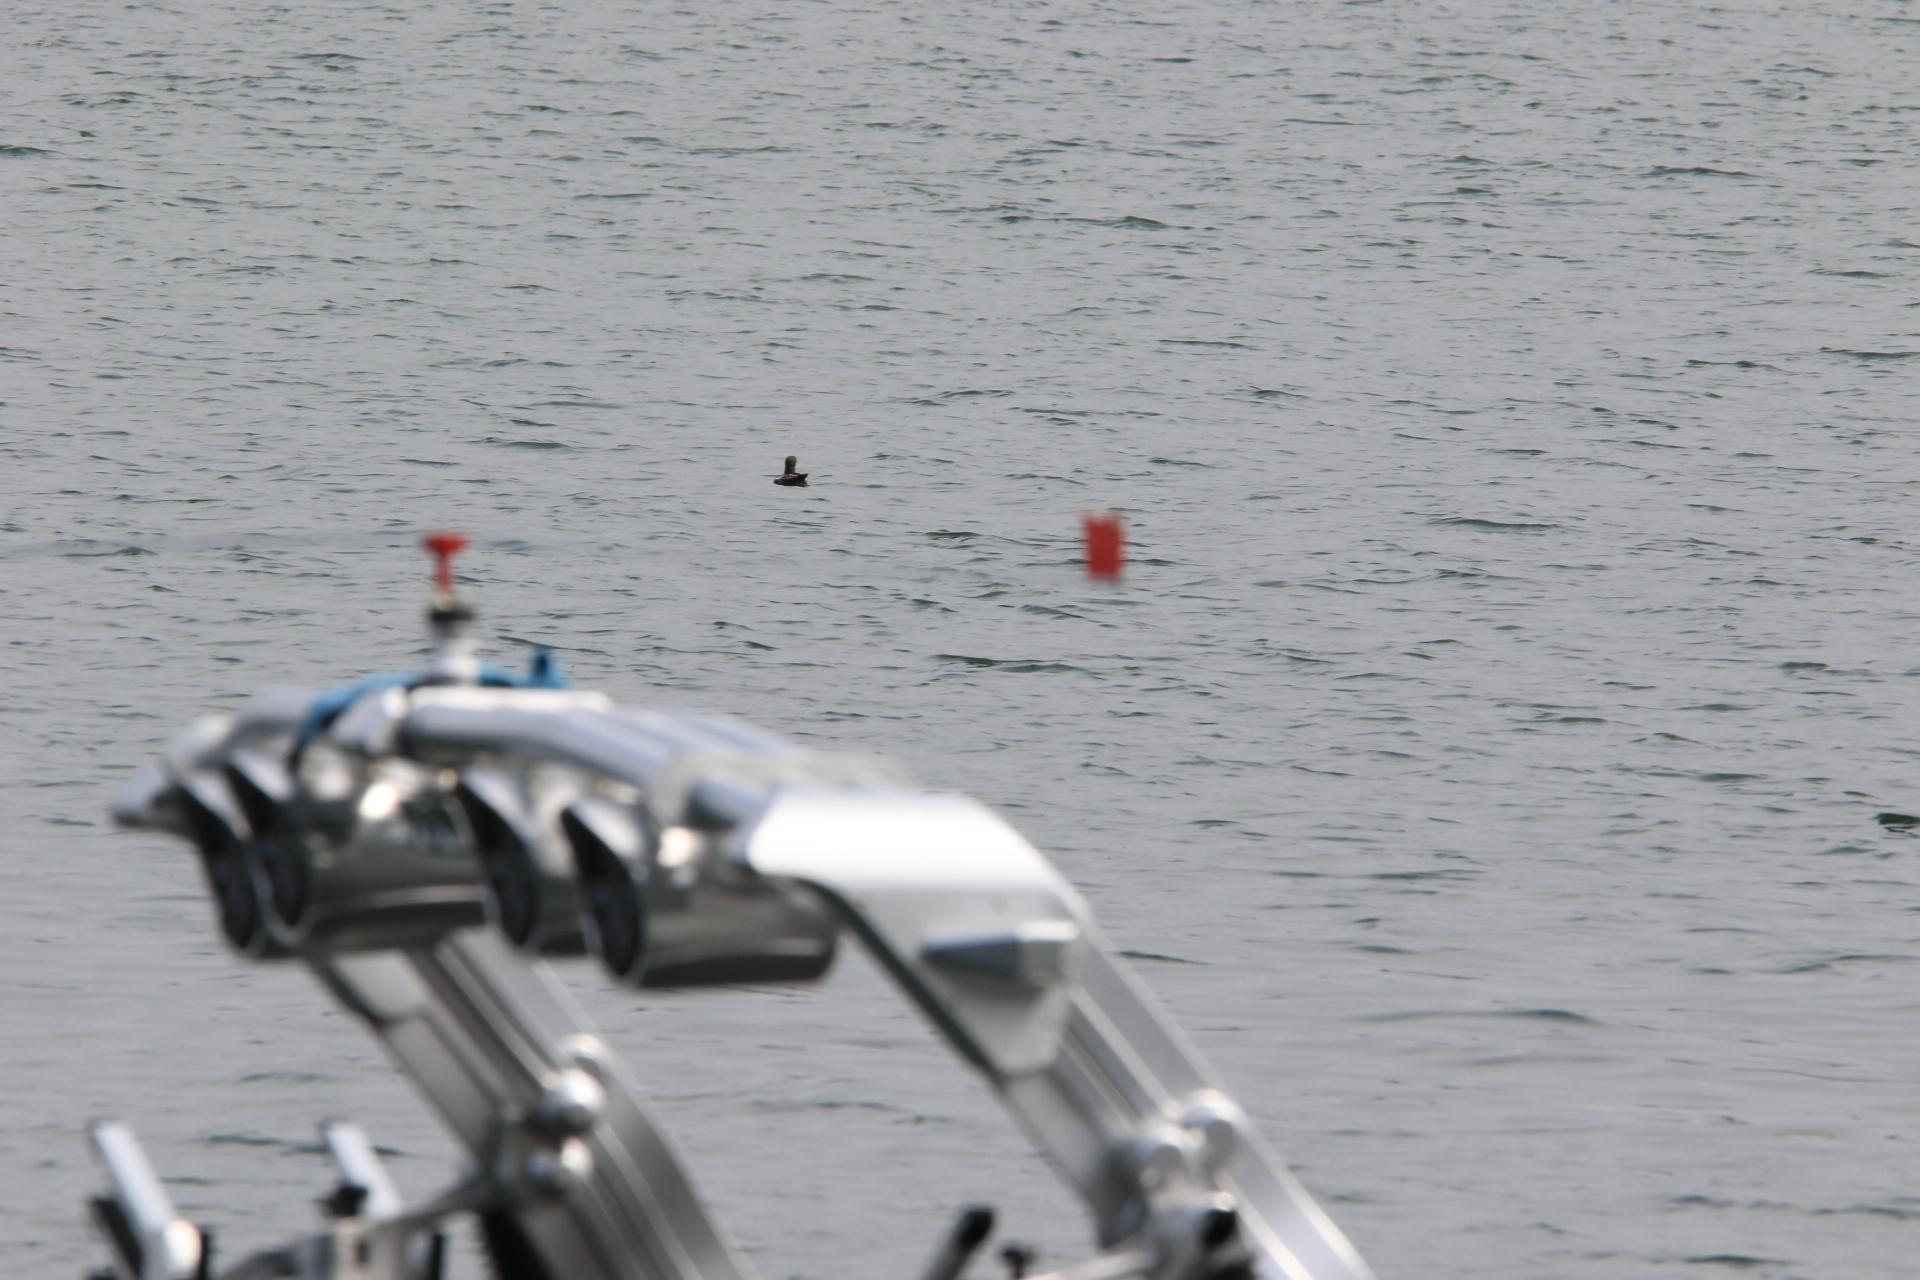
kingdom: Animalia
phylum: Chordata
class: Aves
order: Charadriiformes
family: Alcidae
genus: Cepphus
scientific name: Cepphus columba
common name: Pigeon guillemot
